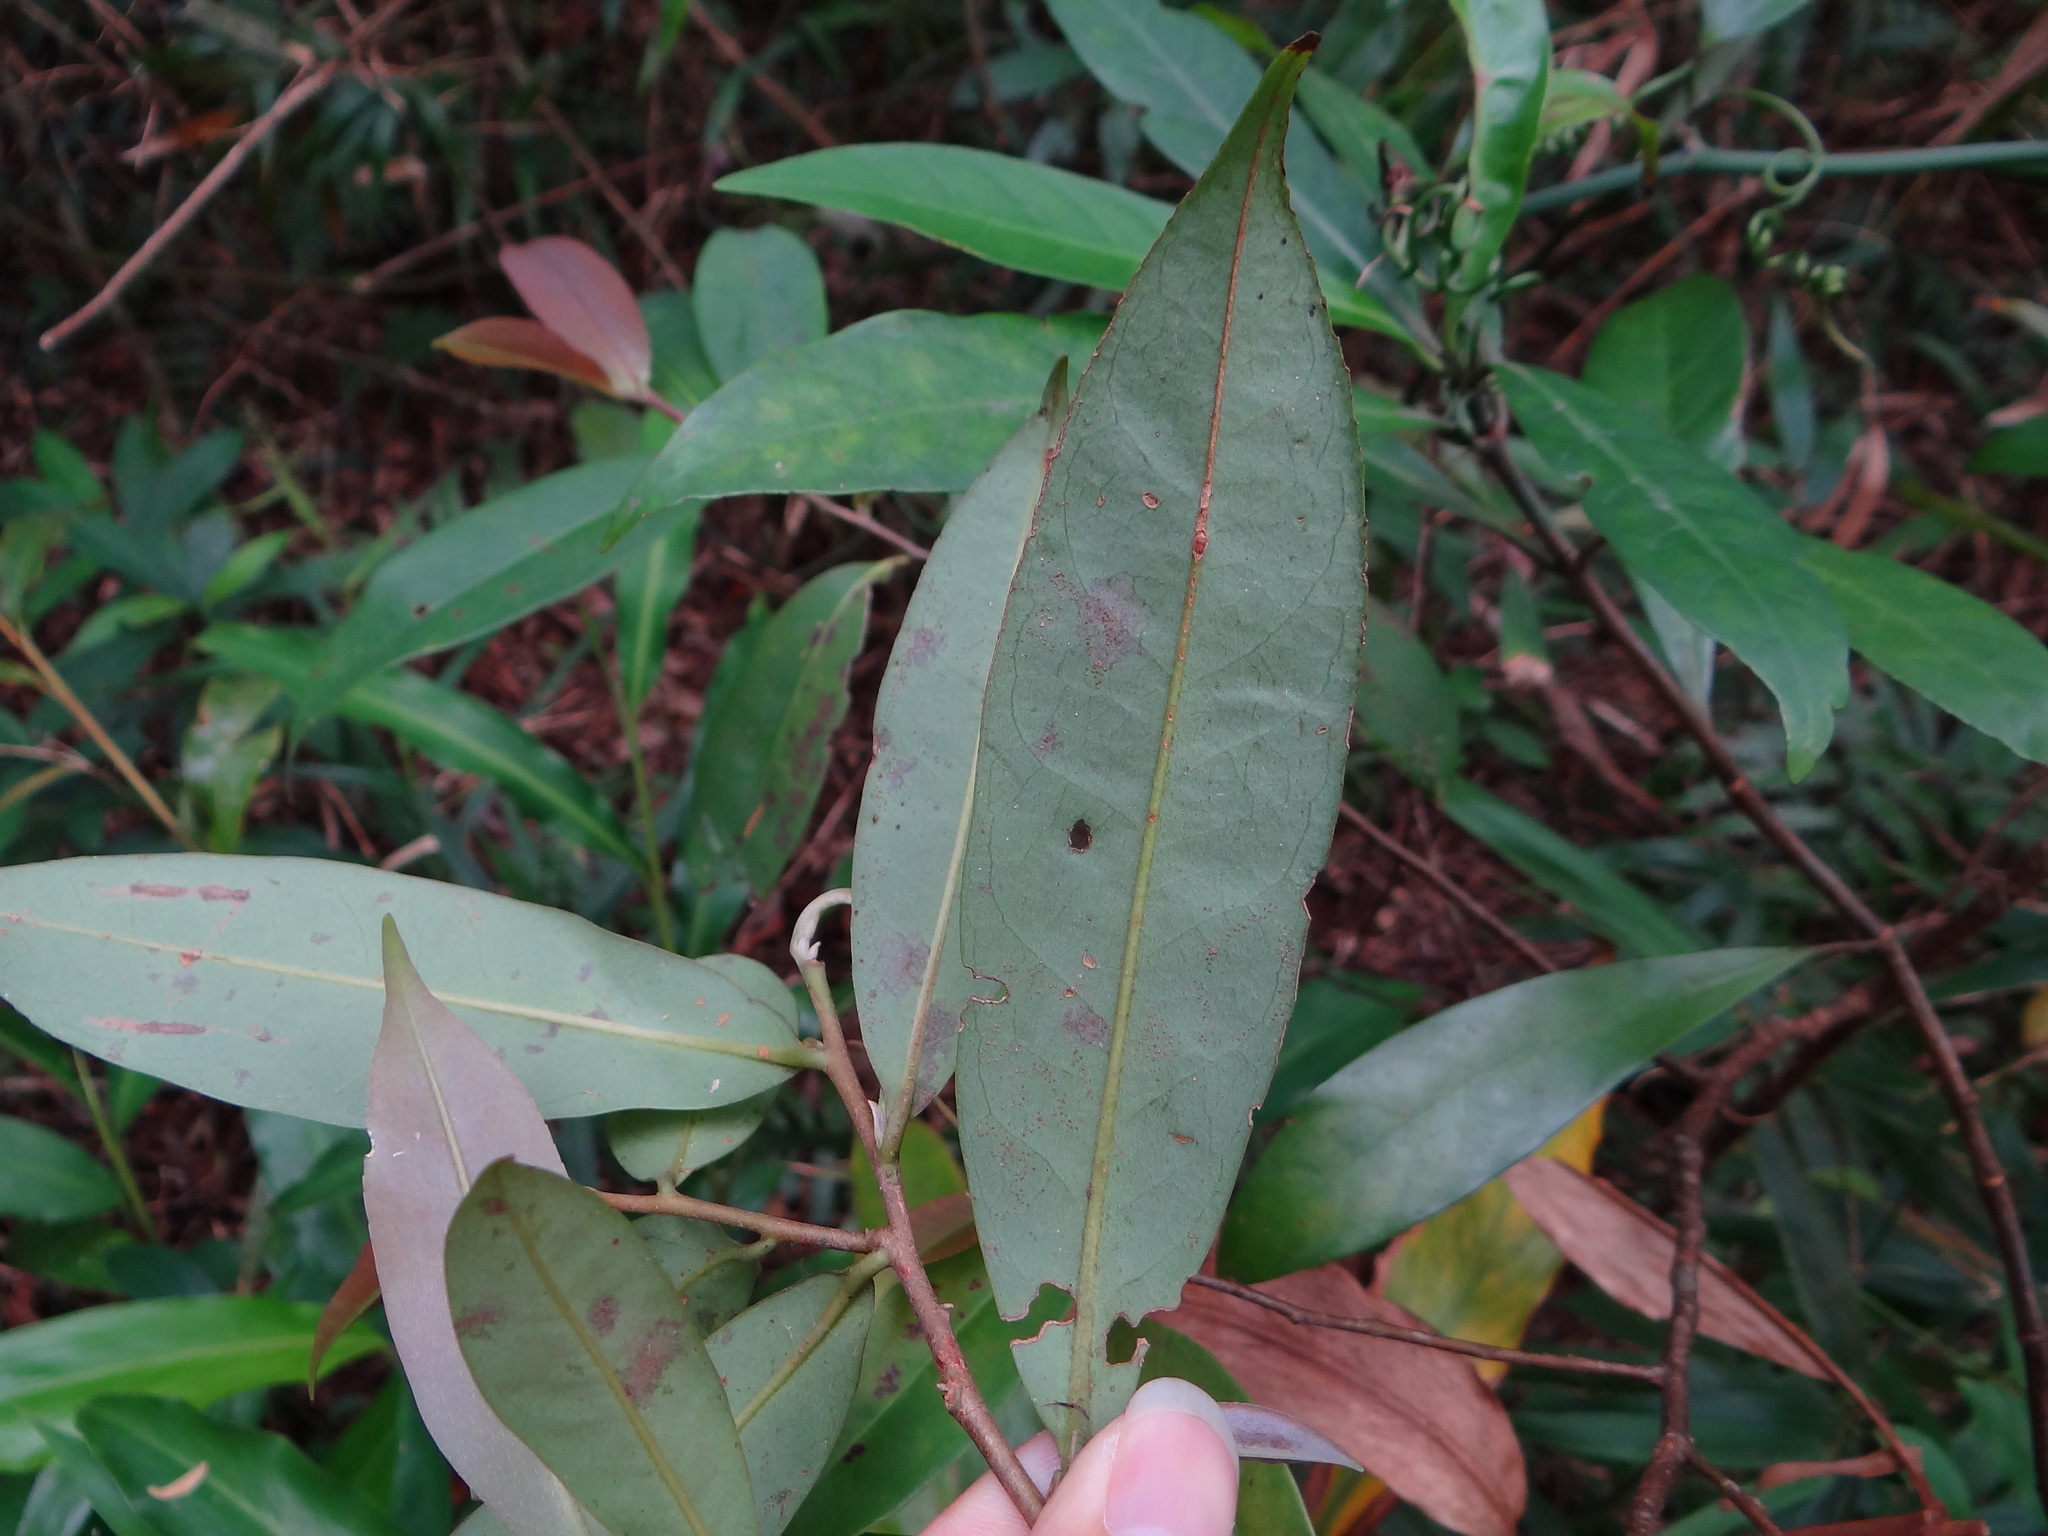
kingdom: Plantae
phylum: Tracheophyta
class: Magnoliopsida
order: Ericales
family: Pentaphylacaceae
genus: Adinandra
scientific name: Adinandra formosana
